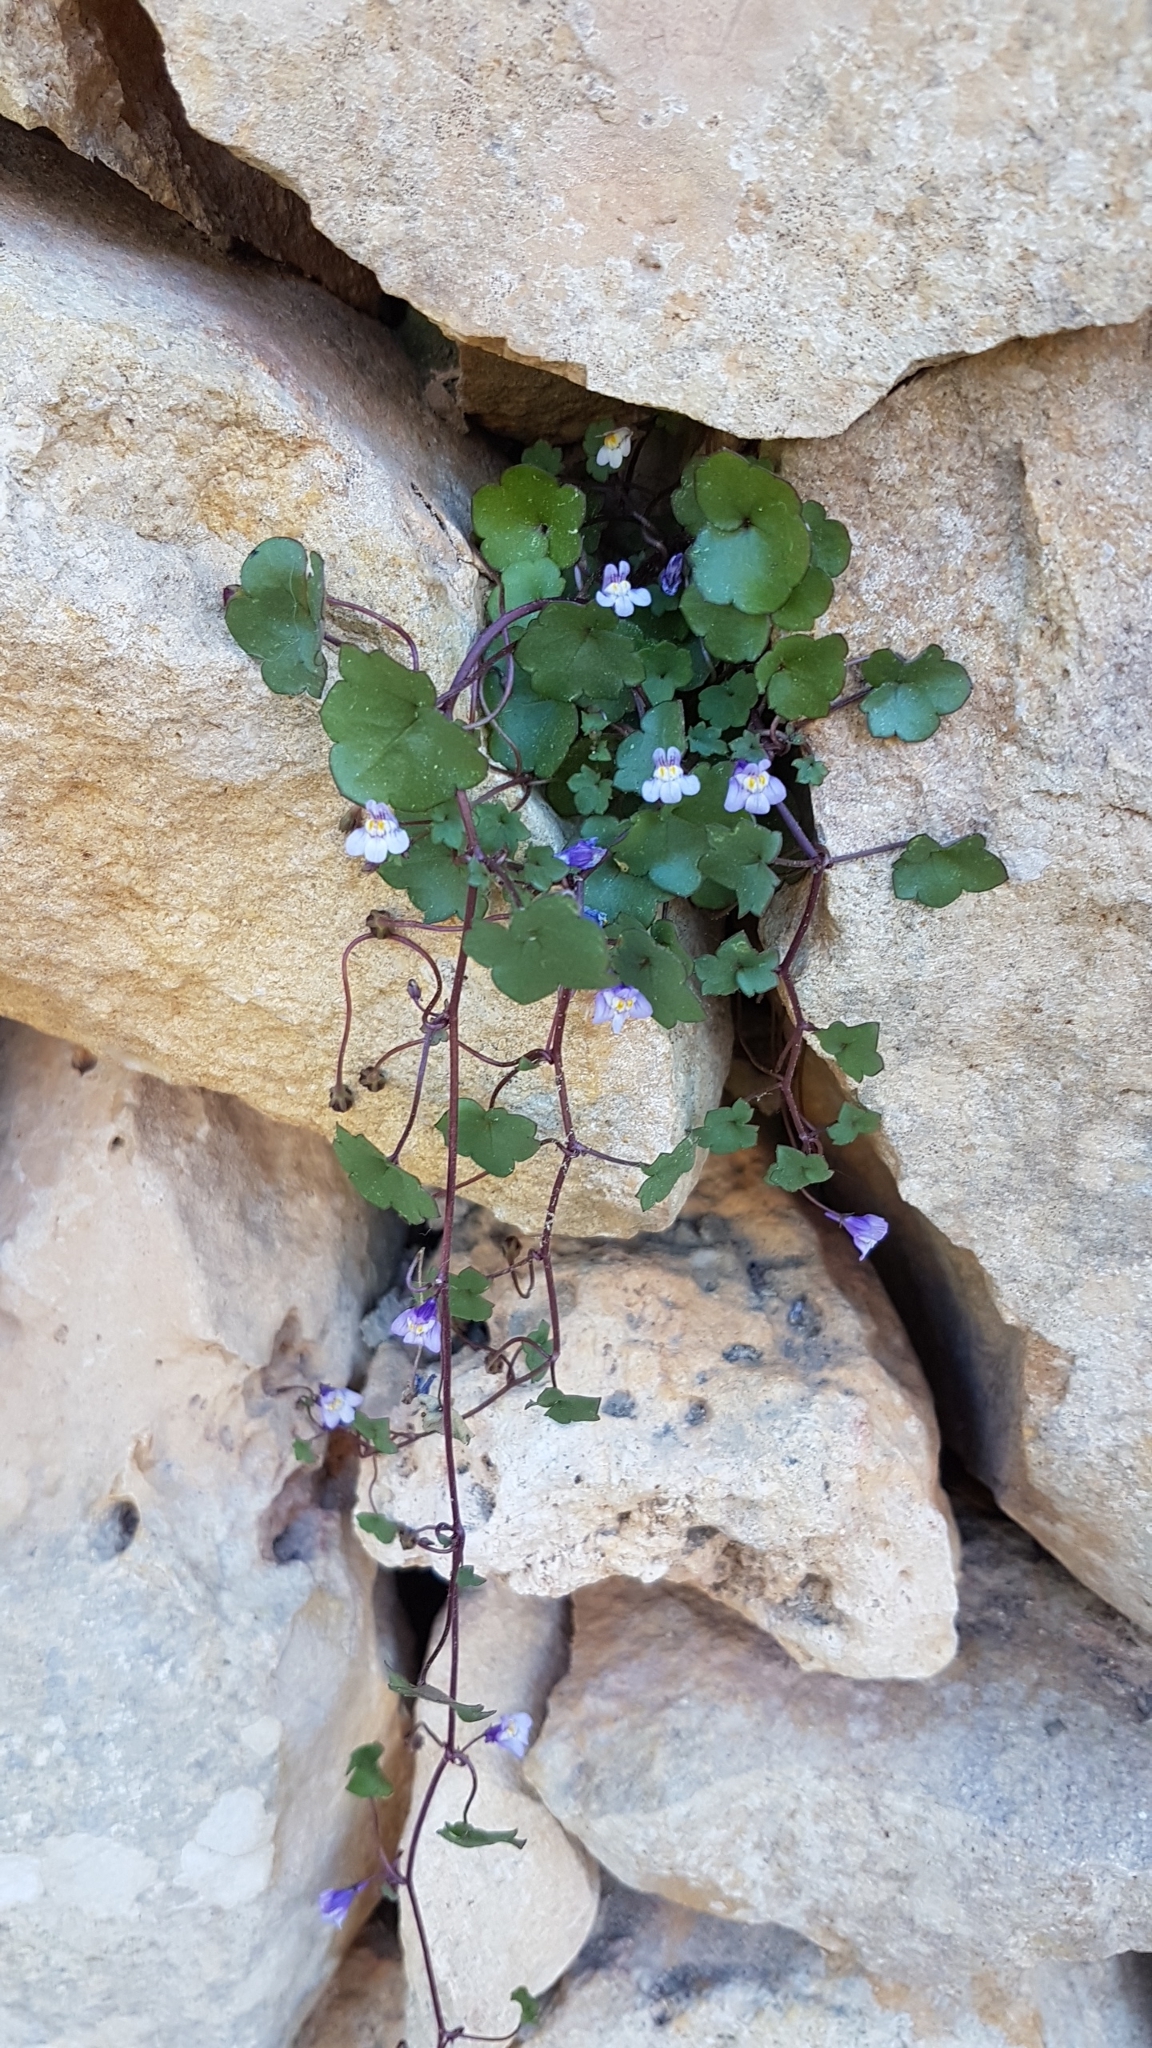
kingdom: Plantae
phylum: Tracheophyta
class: Magnoliopsida
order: Lamiales
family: Plantaginaceae
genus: Cymbalaria
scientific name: Cymbalaria muralis
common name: Ivy-leaved toadflax
